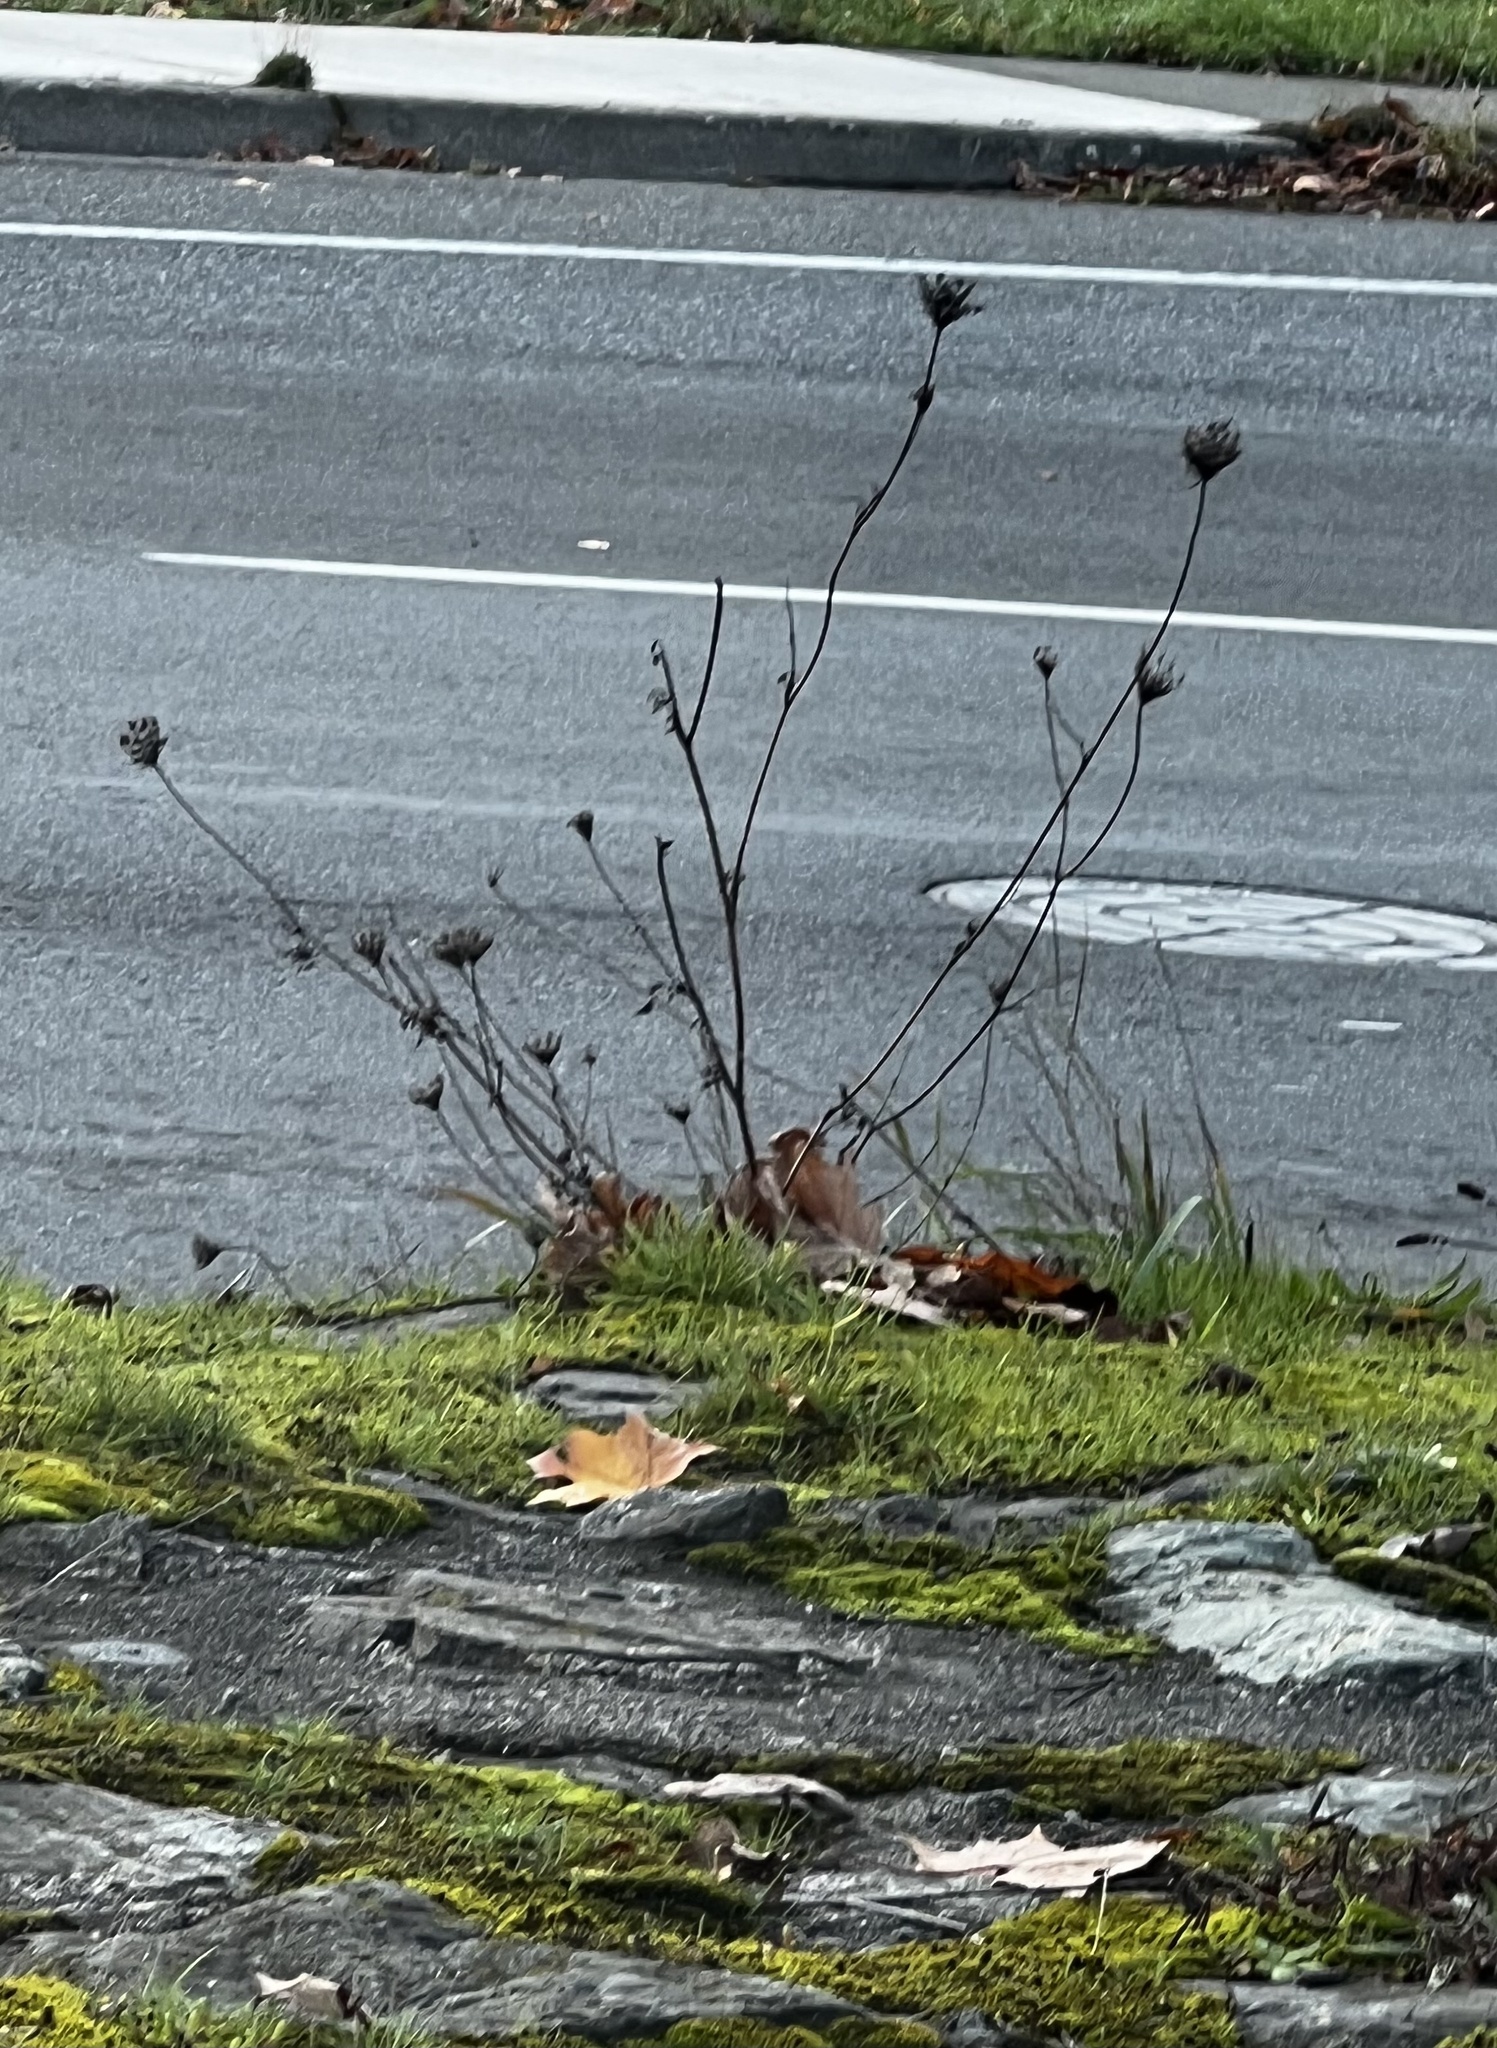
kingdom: Plantae
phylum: Tracheophyta
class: Magnoliopsida
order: Apiales
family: Apiaceae
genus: Daucus
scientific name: Daucus carota
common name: Wild carrot
